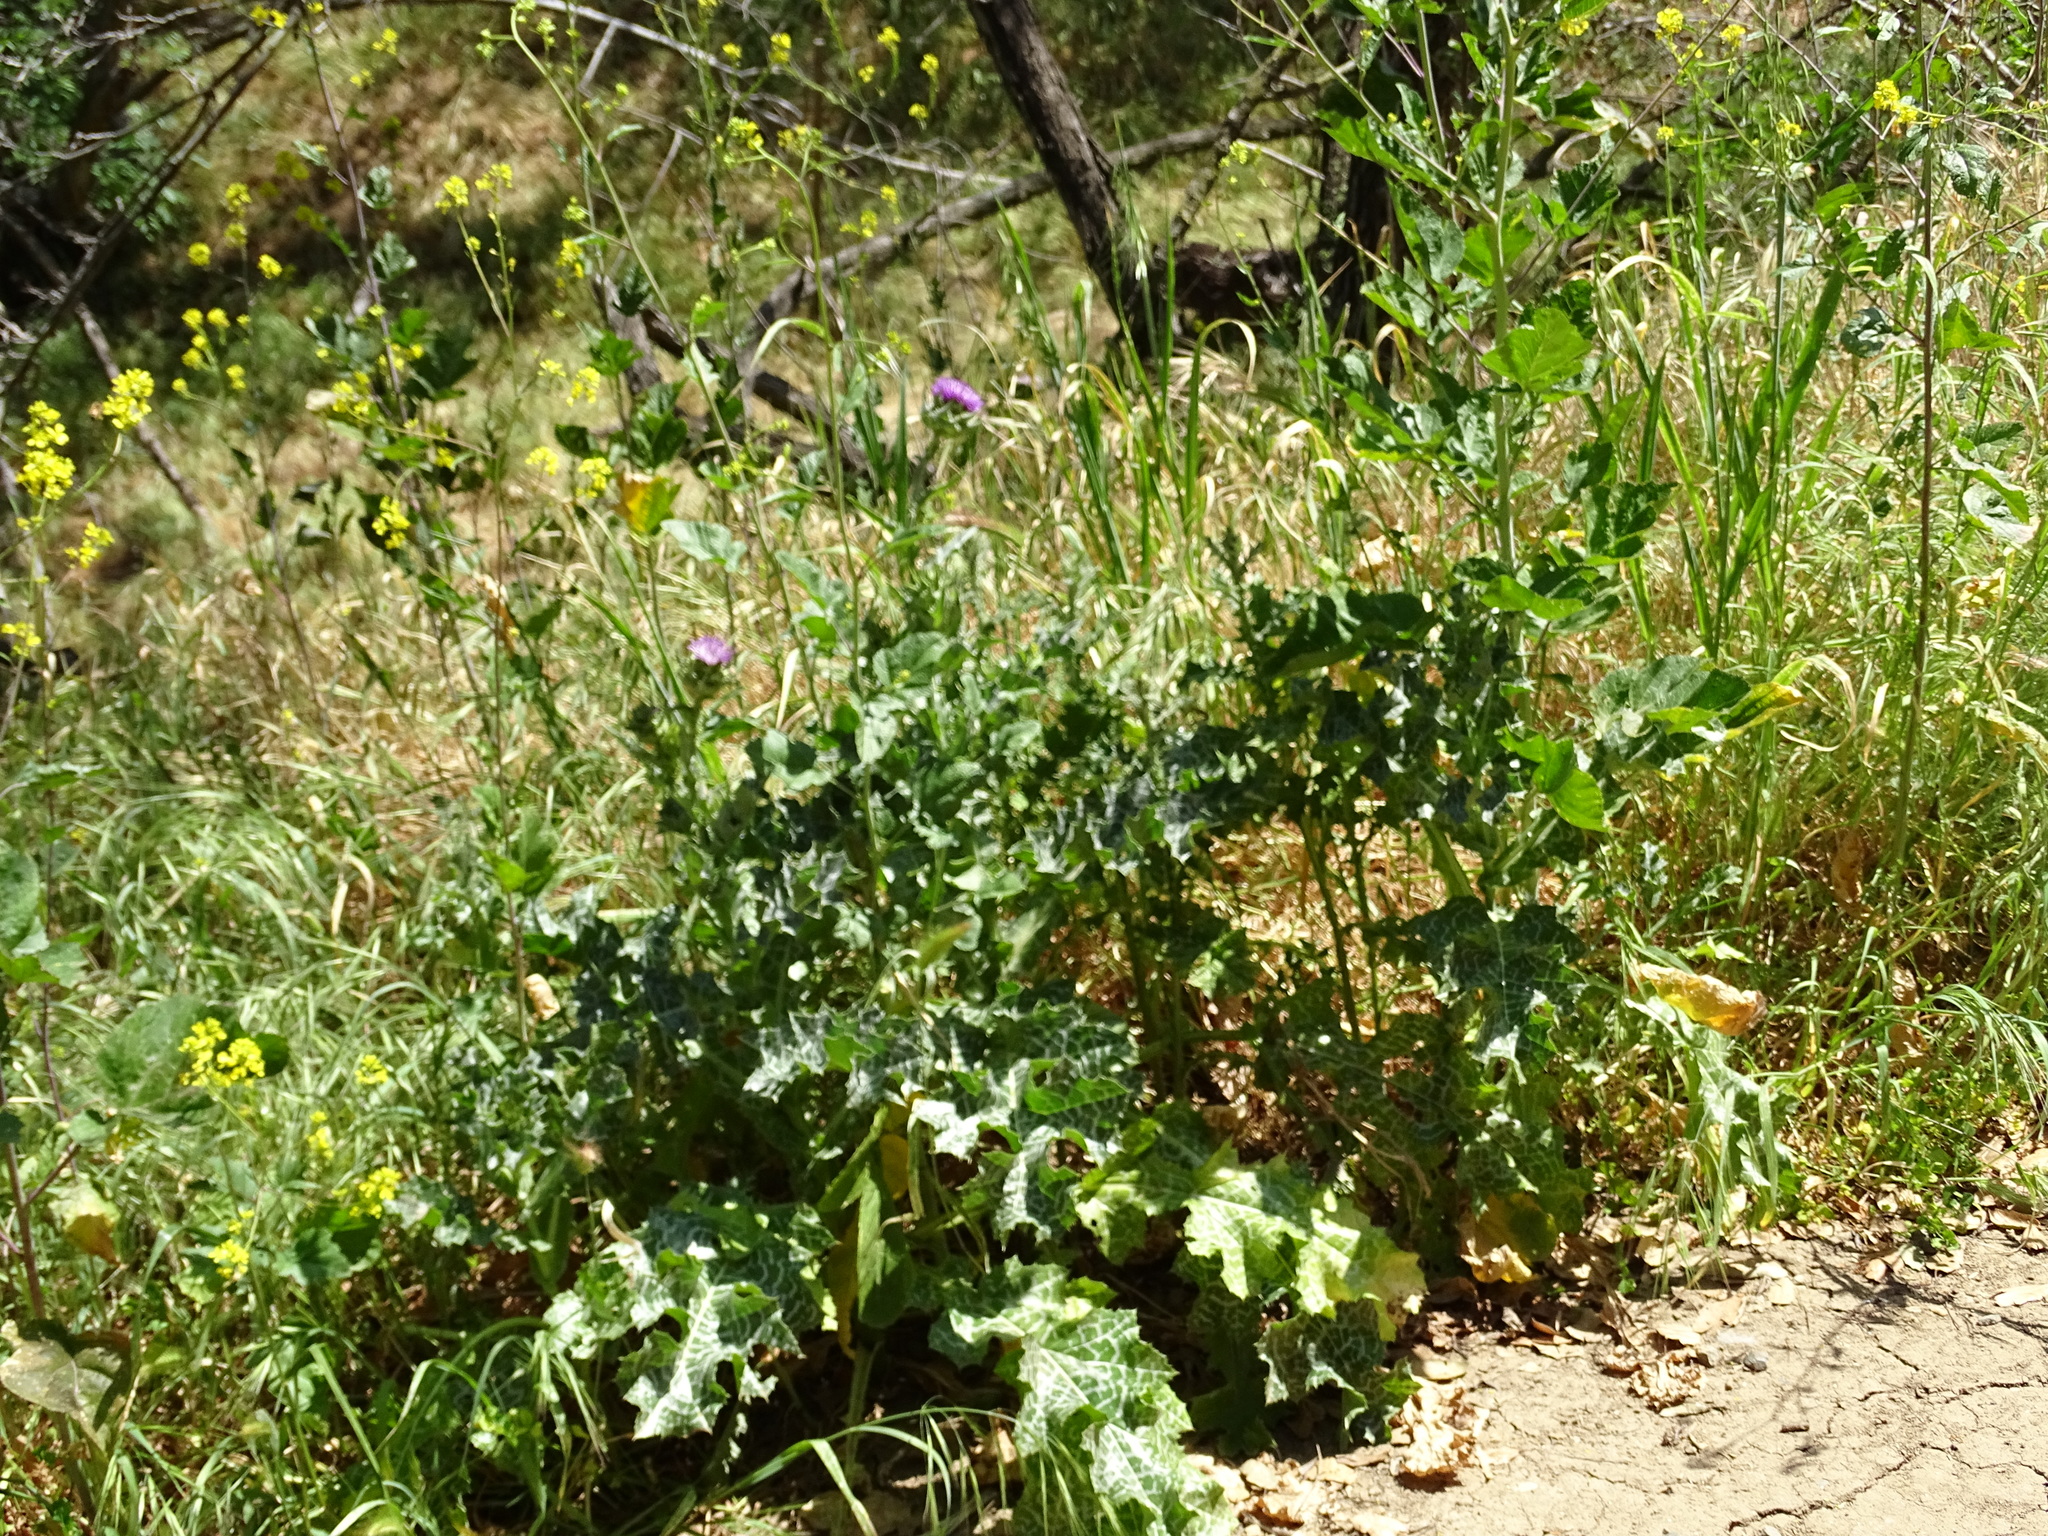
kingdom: Plantae
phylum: Tracheophyta
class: Magnoliopsida
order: Asterales
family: Asteraceae
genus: Silybum
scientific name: Silybum marianum
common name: Milk thistle
